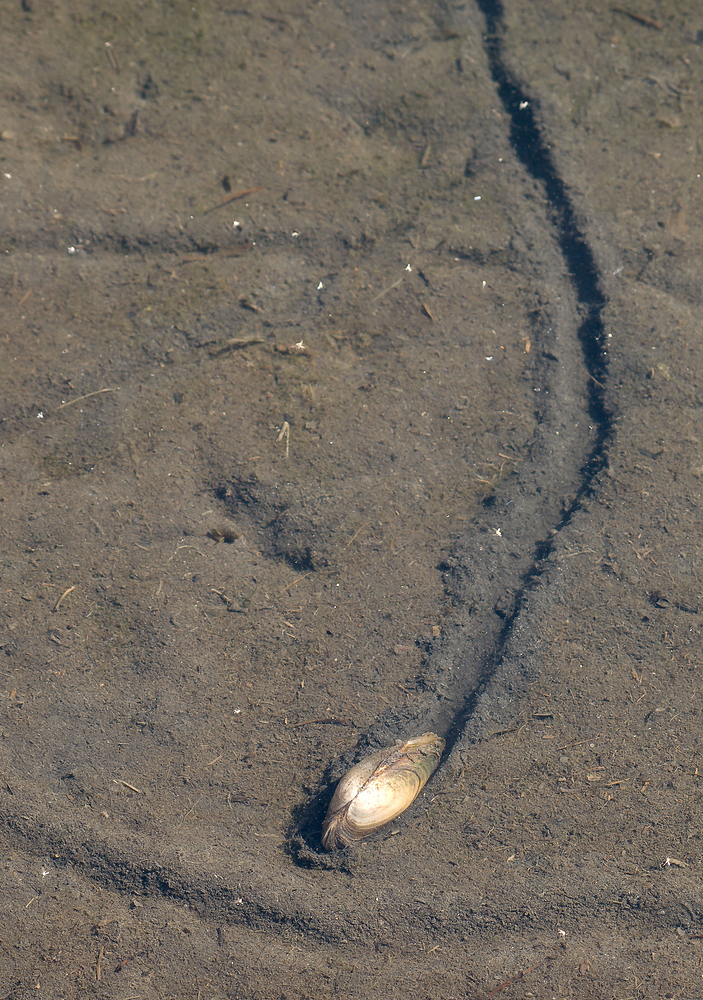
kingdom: Animalia
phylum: Mollusca
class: Bivalvia
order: Unionida
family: Unionidae
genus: Anodonta
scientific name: Anodonta anatina
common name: Duck mussel
